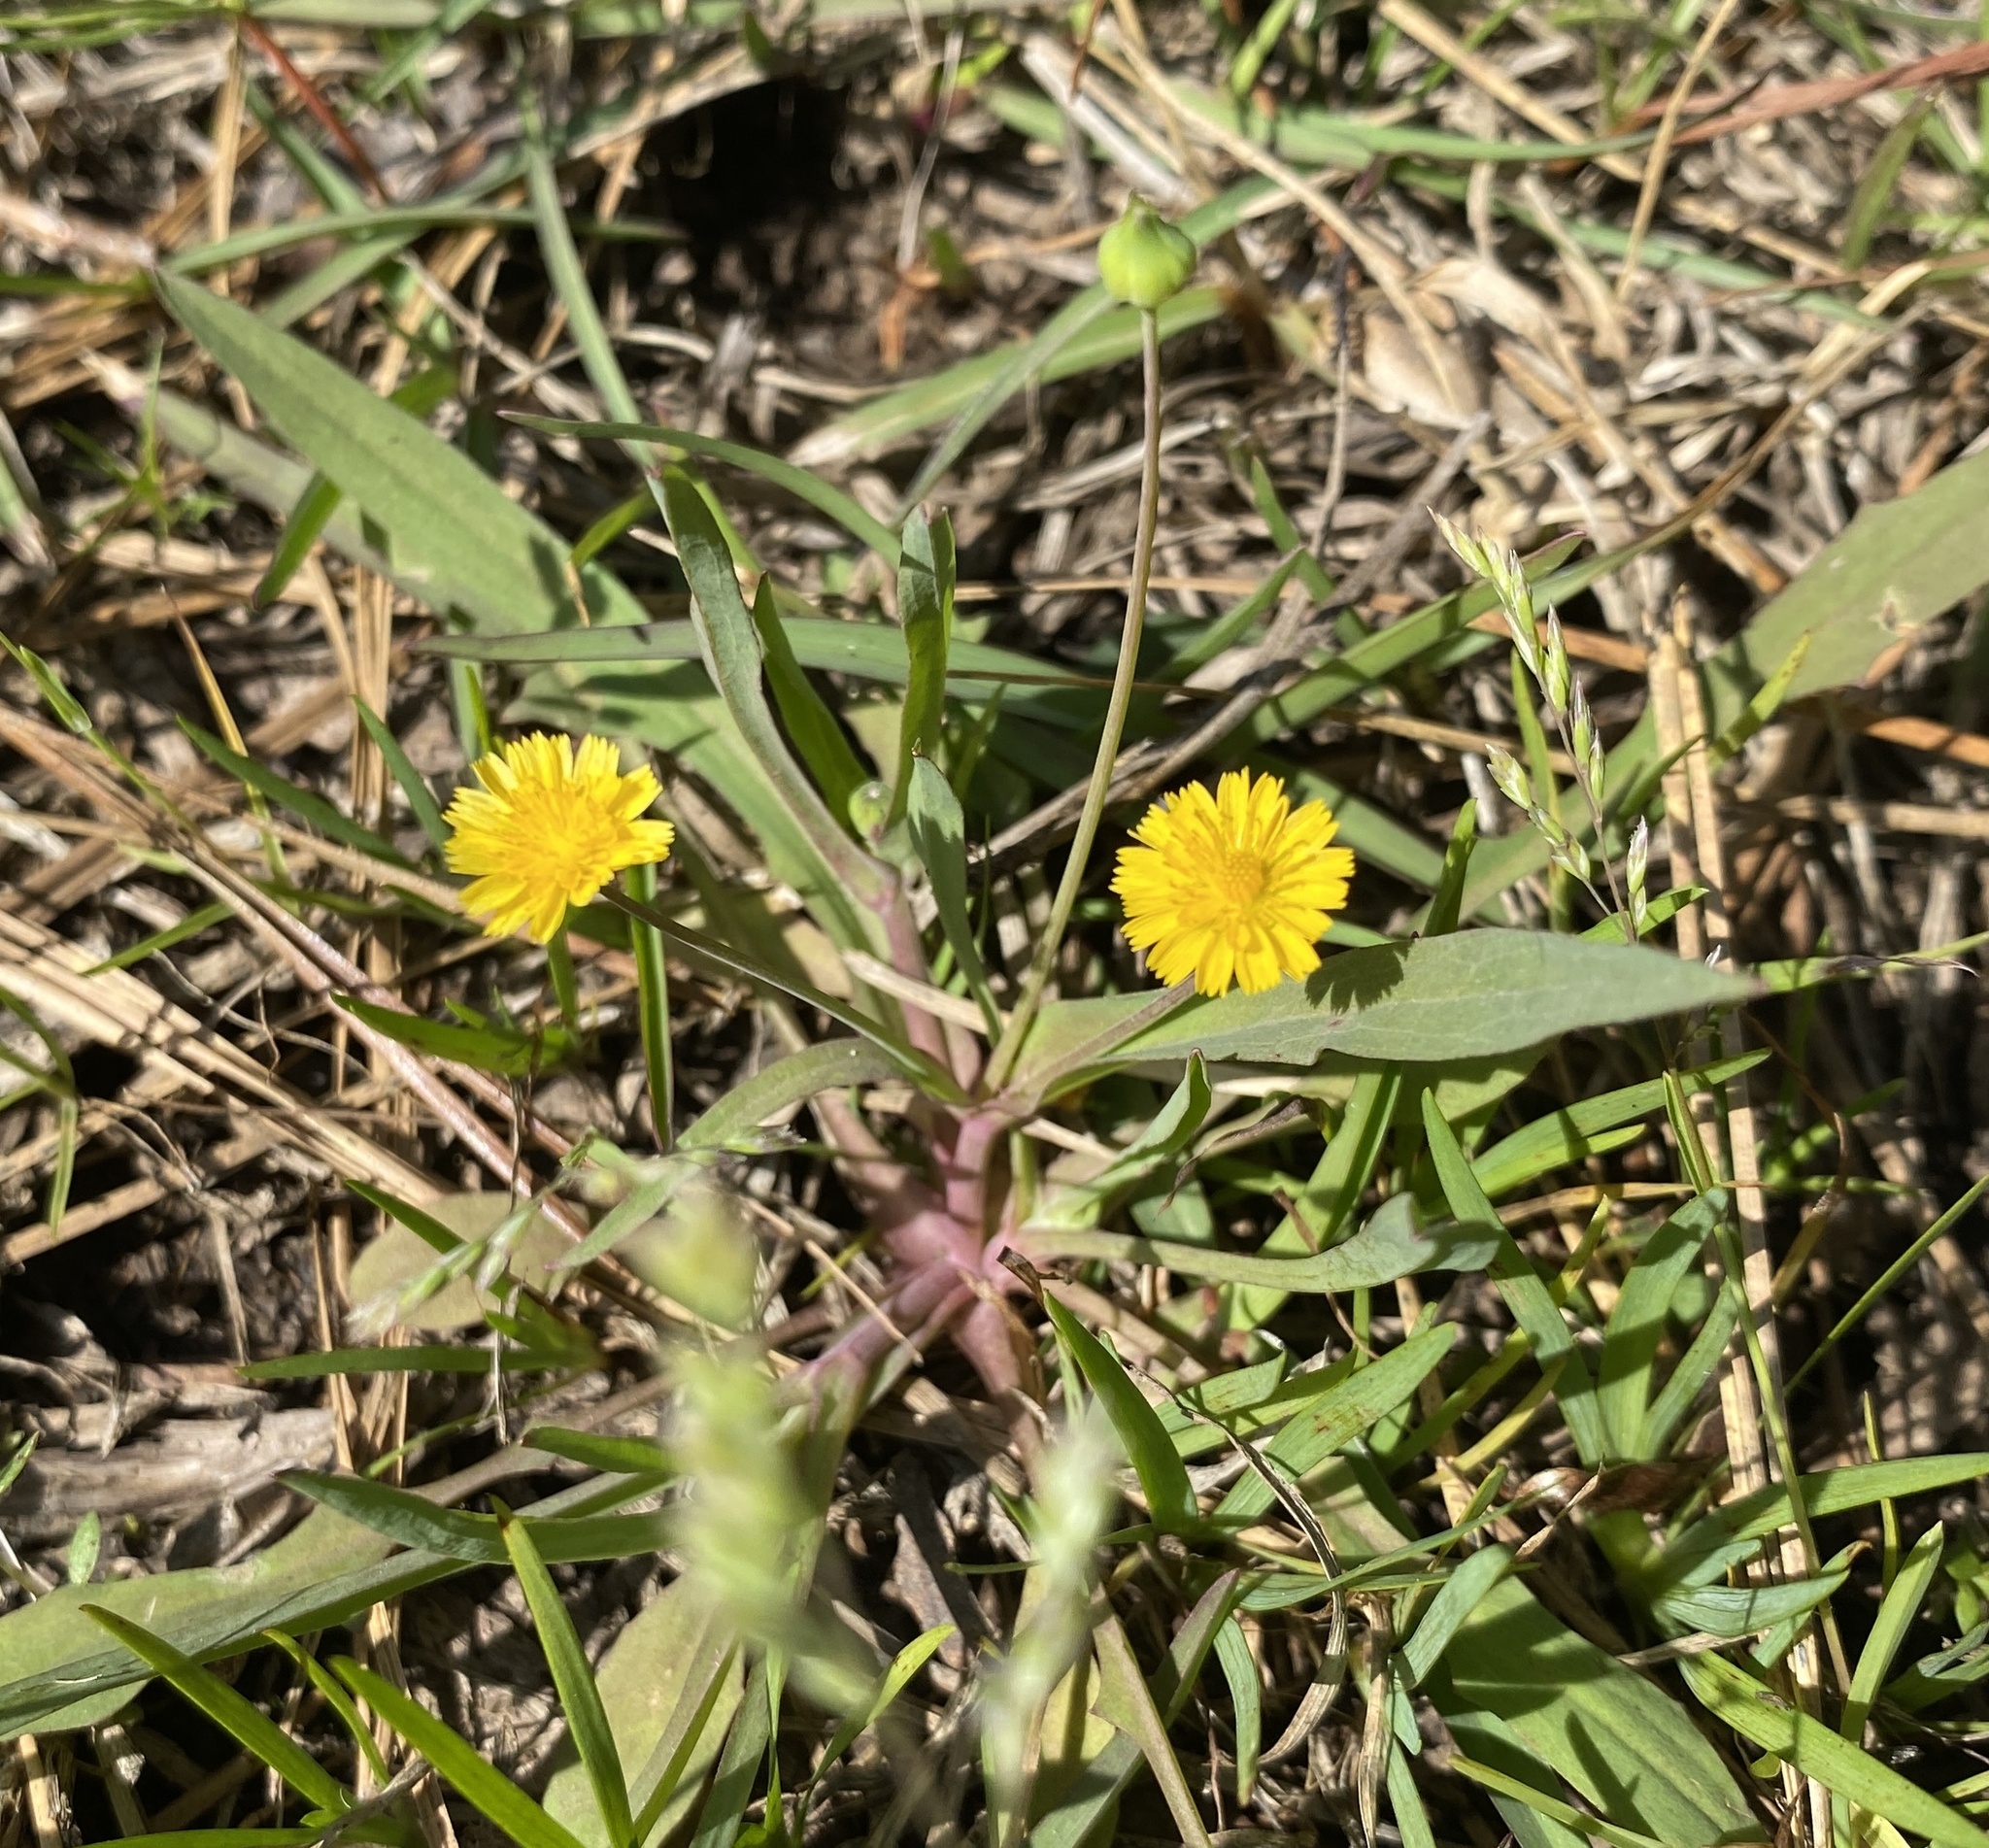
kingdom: Plantae
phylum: Tracheophyta
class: Magnoliopsida
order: Asterales
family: Asteraceae
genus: Krigia
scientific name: Krigia cespitosa
